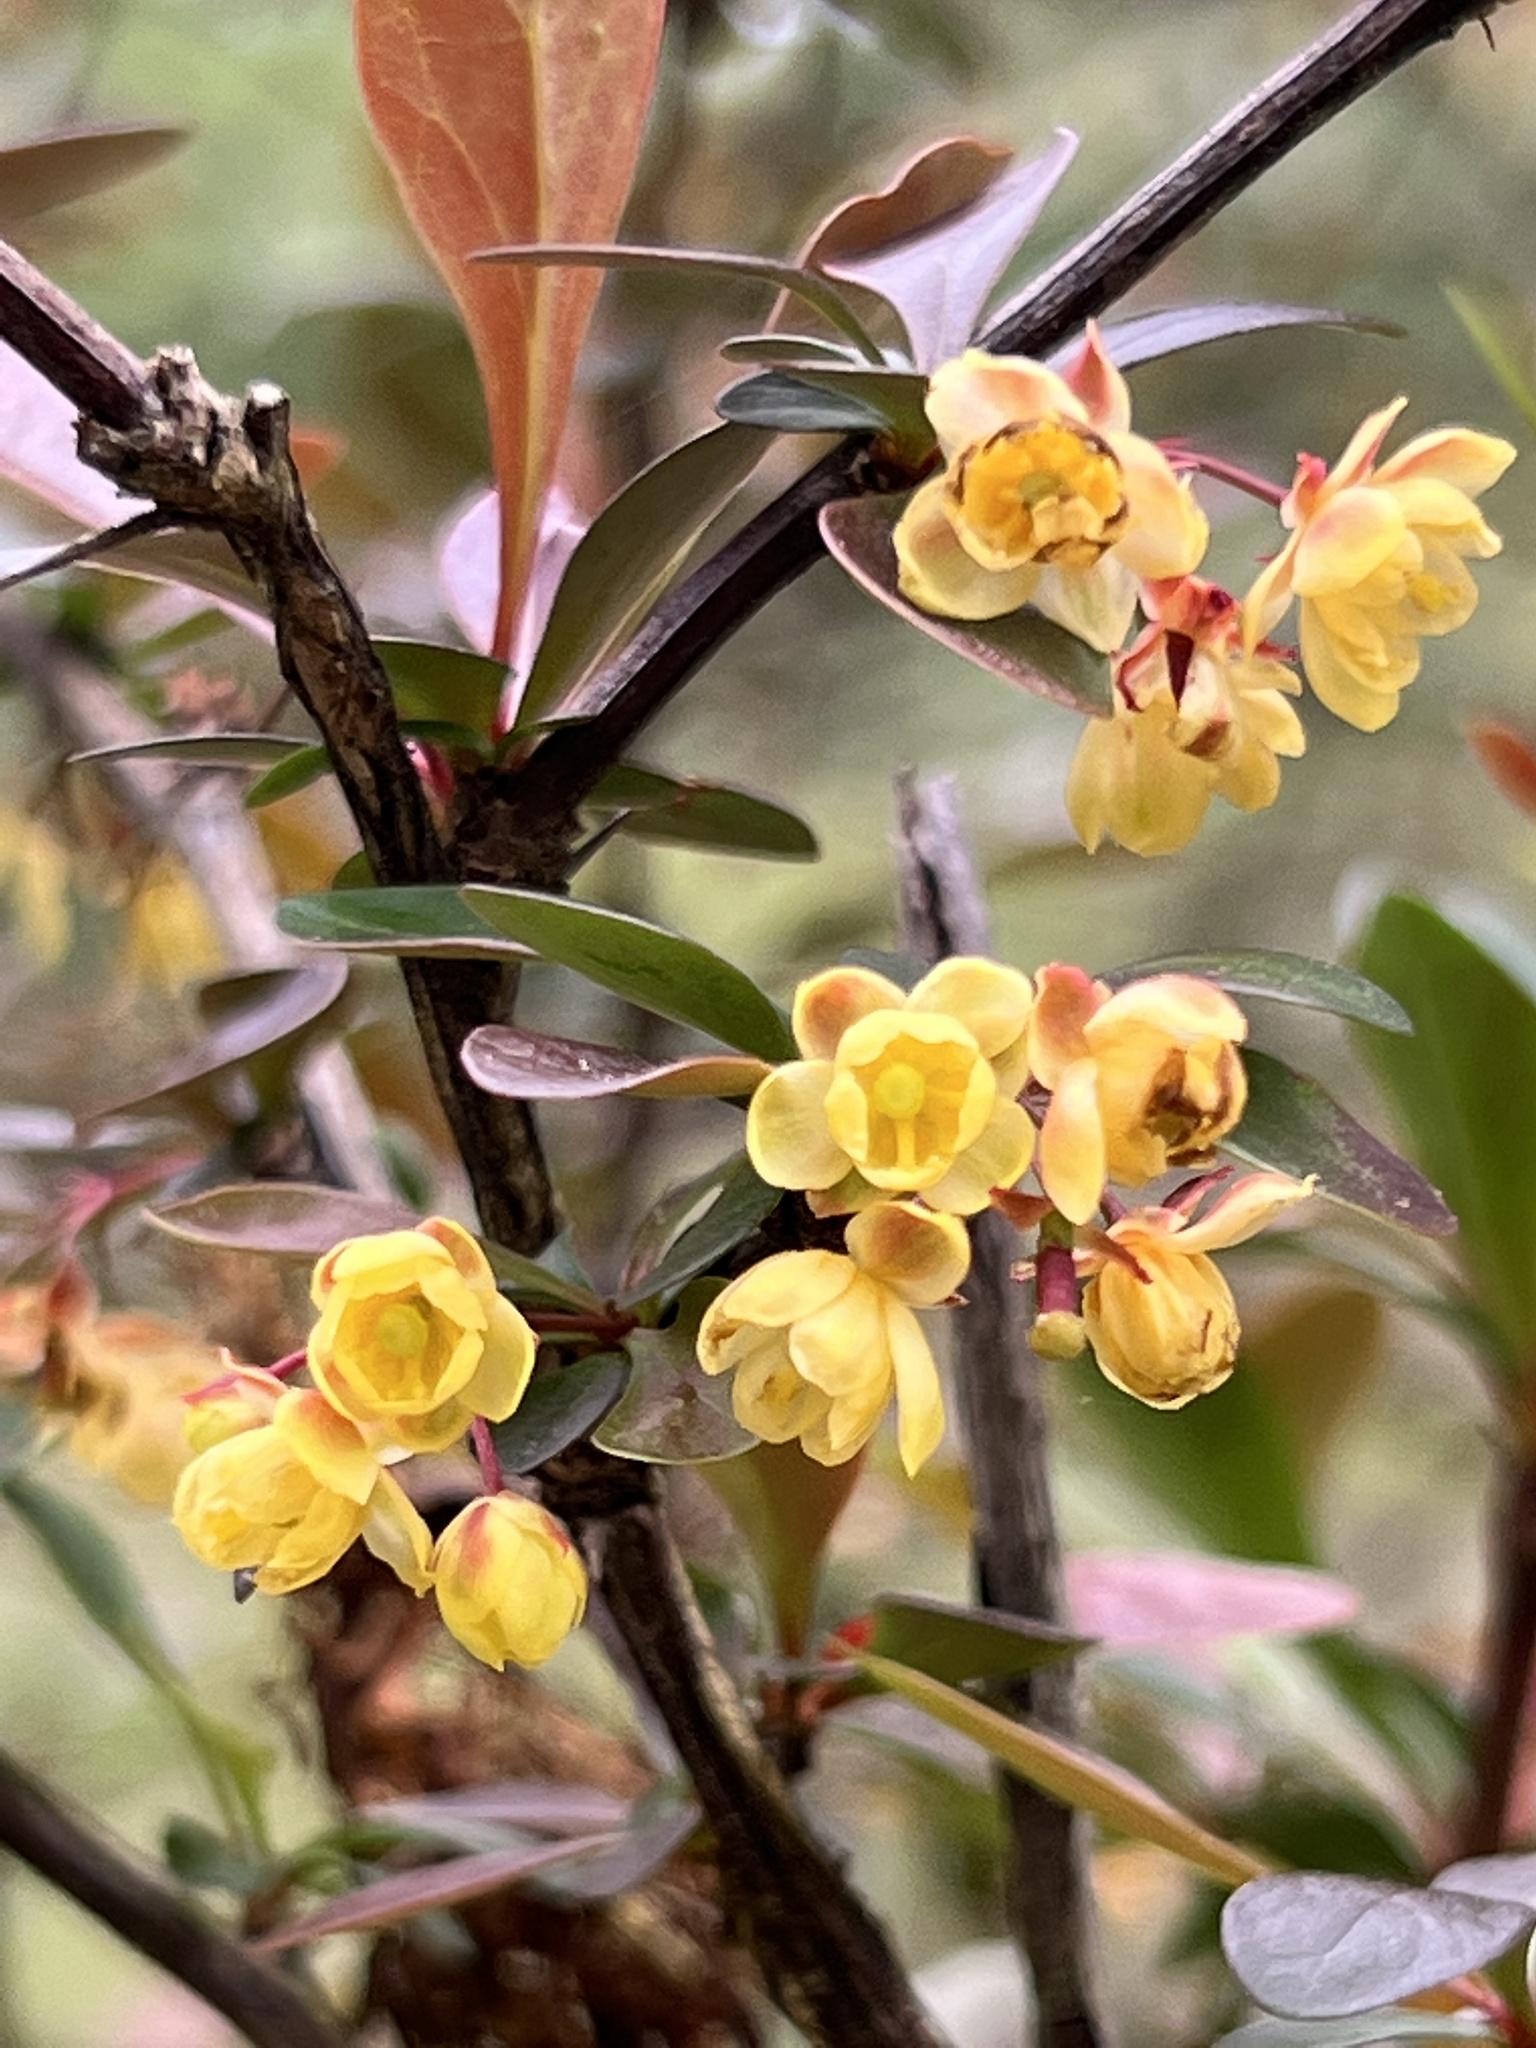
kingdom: Plantae
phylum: Tracheophyta
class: Magnoliopsida
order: Ranunculales
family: Berberidaceae
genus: Berberis
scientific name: Berberis thunbergii
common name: Japanese barberry
